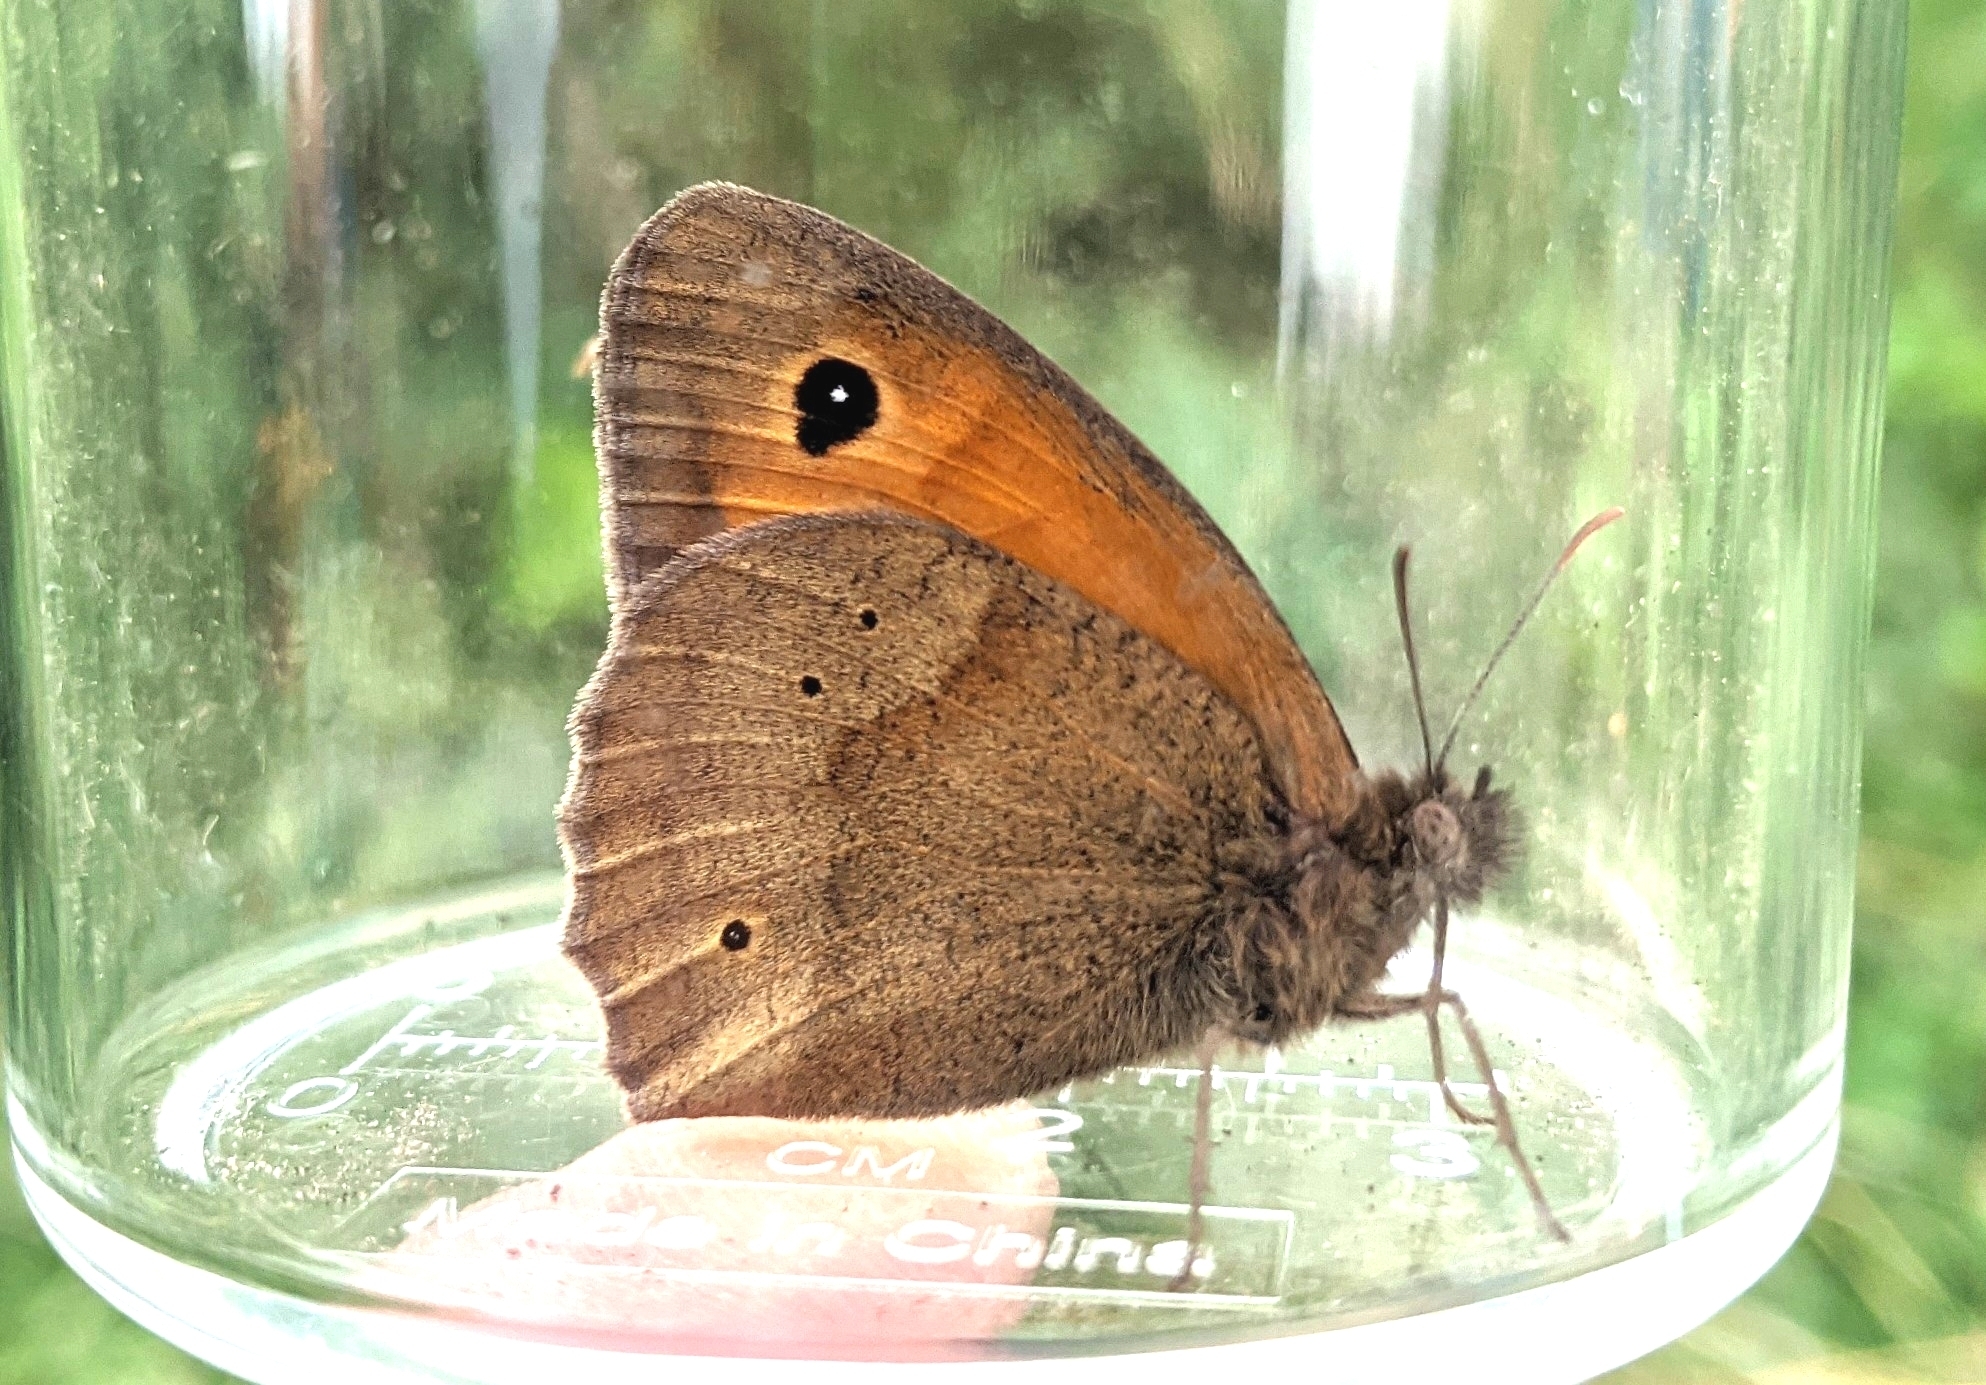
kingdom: Animalia
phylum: Arthropoda
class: Insecta
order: Lepidoptera
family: Nymphalidae
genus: Maniola
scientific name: Maniola jurtina
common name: Meadow brown
